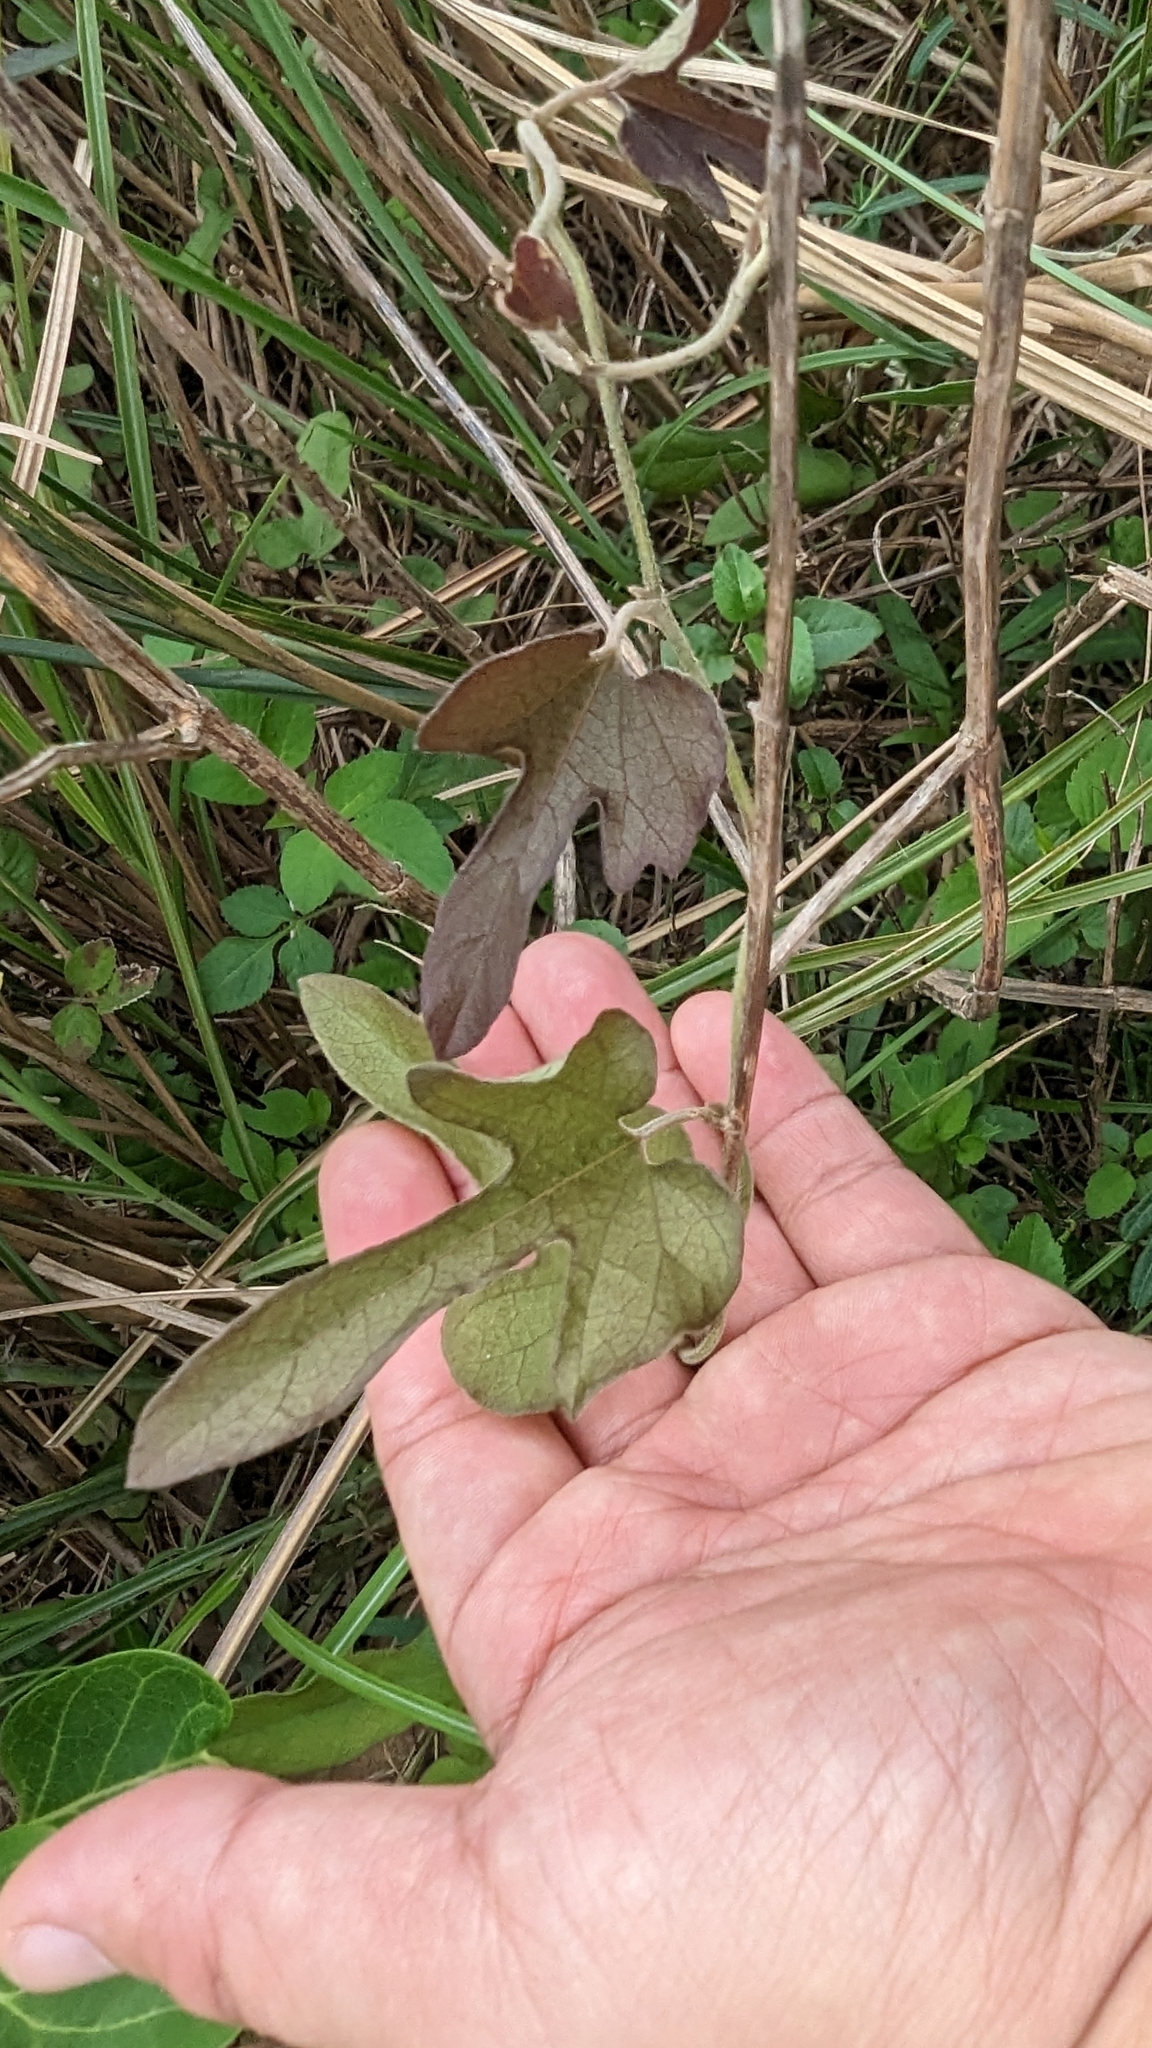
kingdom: Plantae
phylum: Tracheophyta
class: Magnoliopsida
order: Piperales
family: Aristolochiaceae
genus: Isotrema
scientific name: Isotrema shimadae
